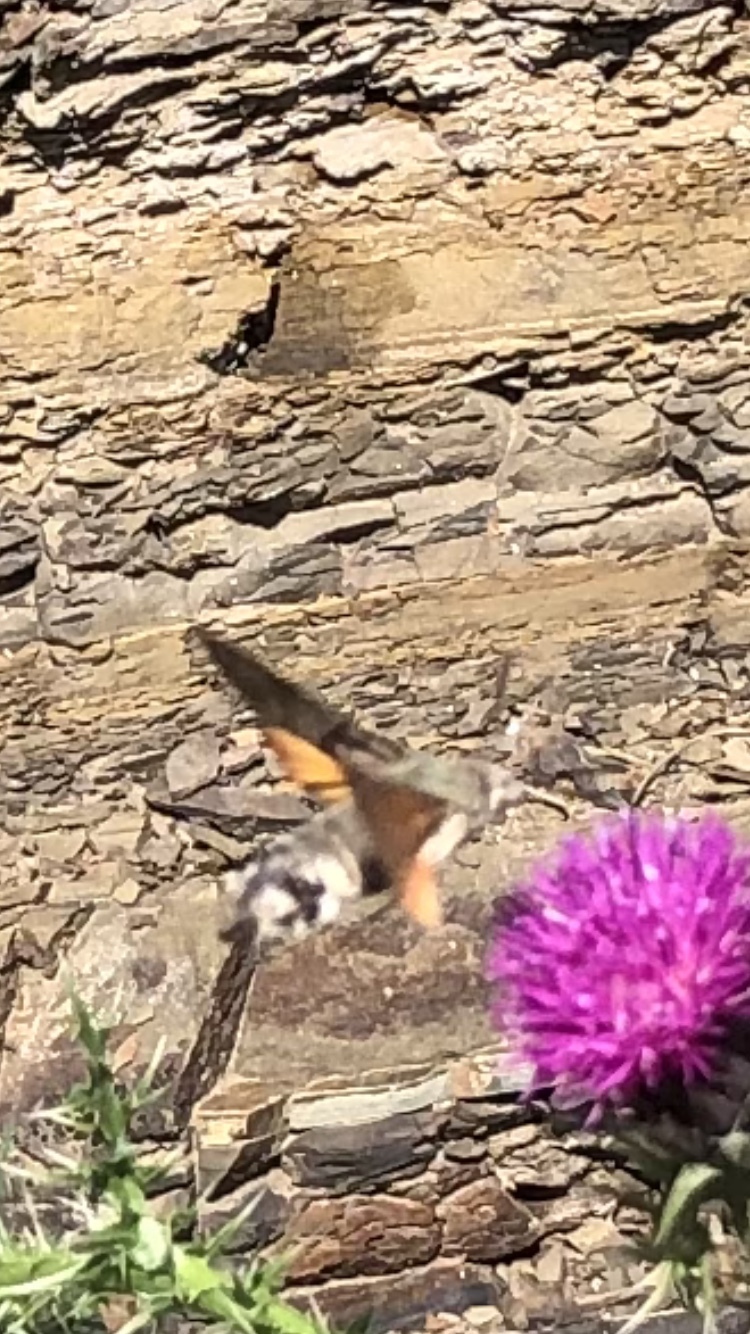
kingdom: Animalia
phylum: Arthropoda
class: Insecta
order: Lepidoptera
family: Sphingidae
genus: Macroglossum
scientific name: Macroglossum stellatarum
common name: Humming-bird hawk-moth
